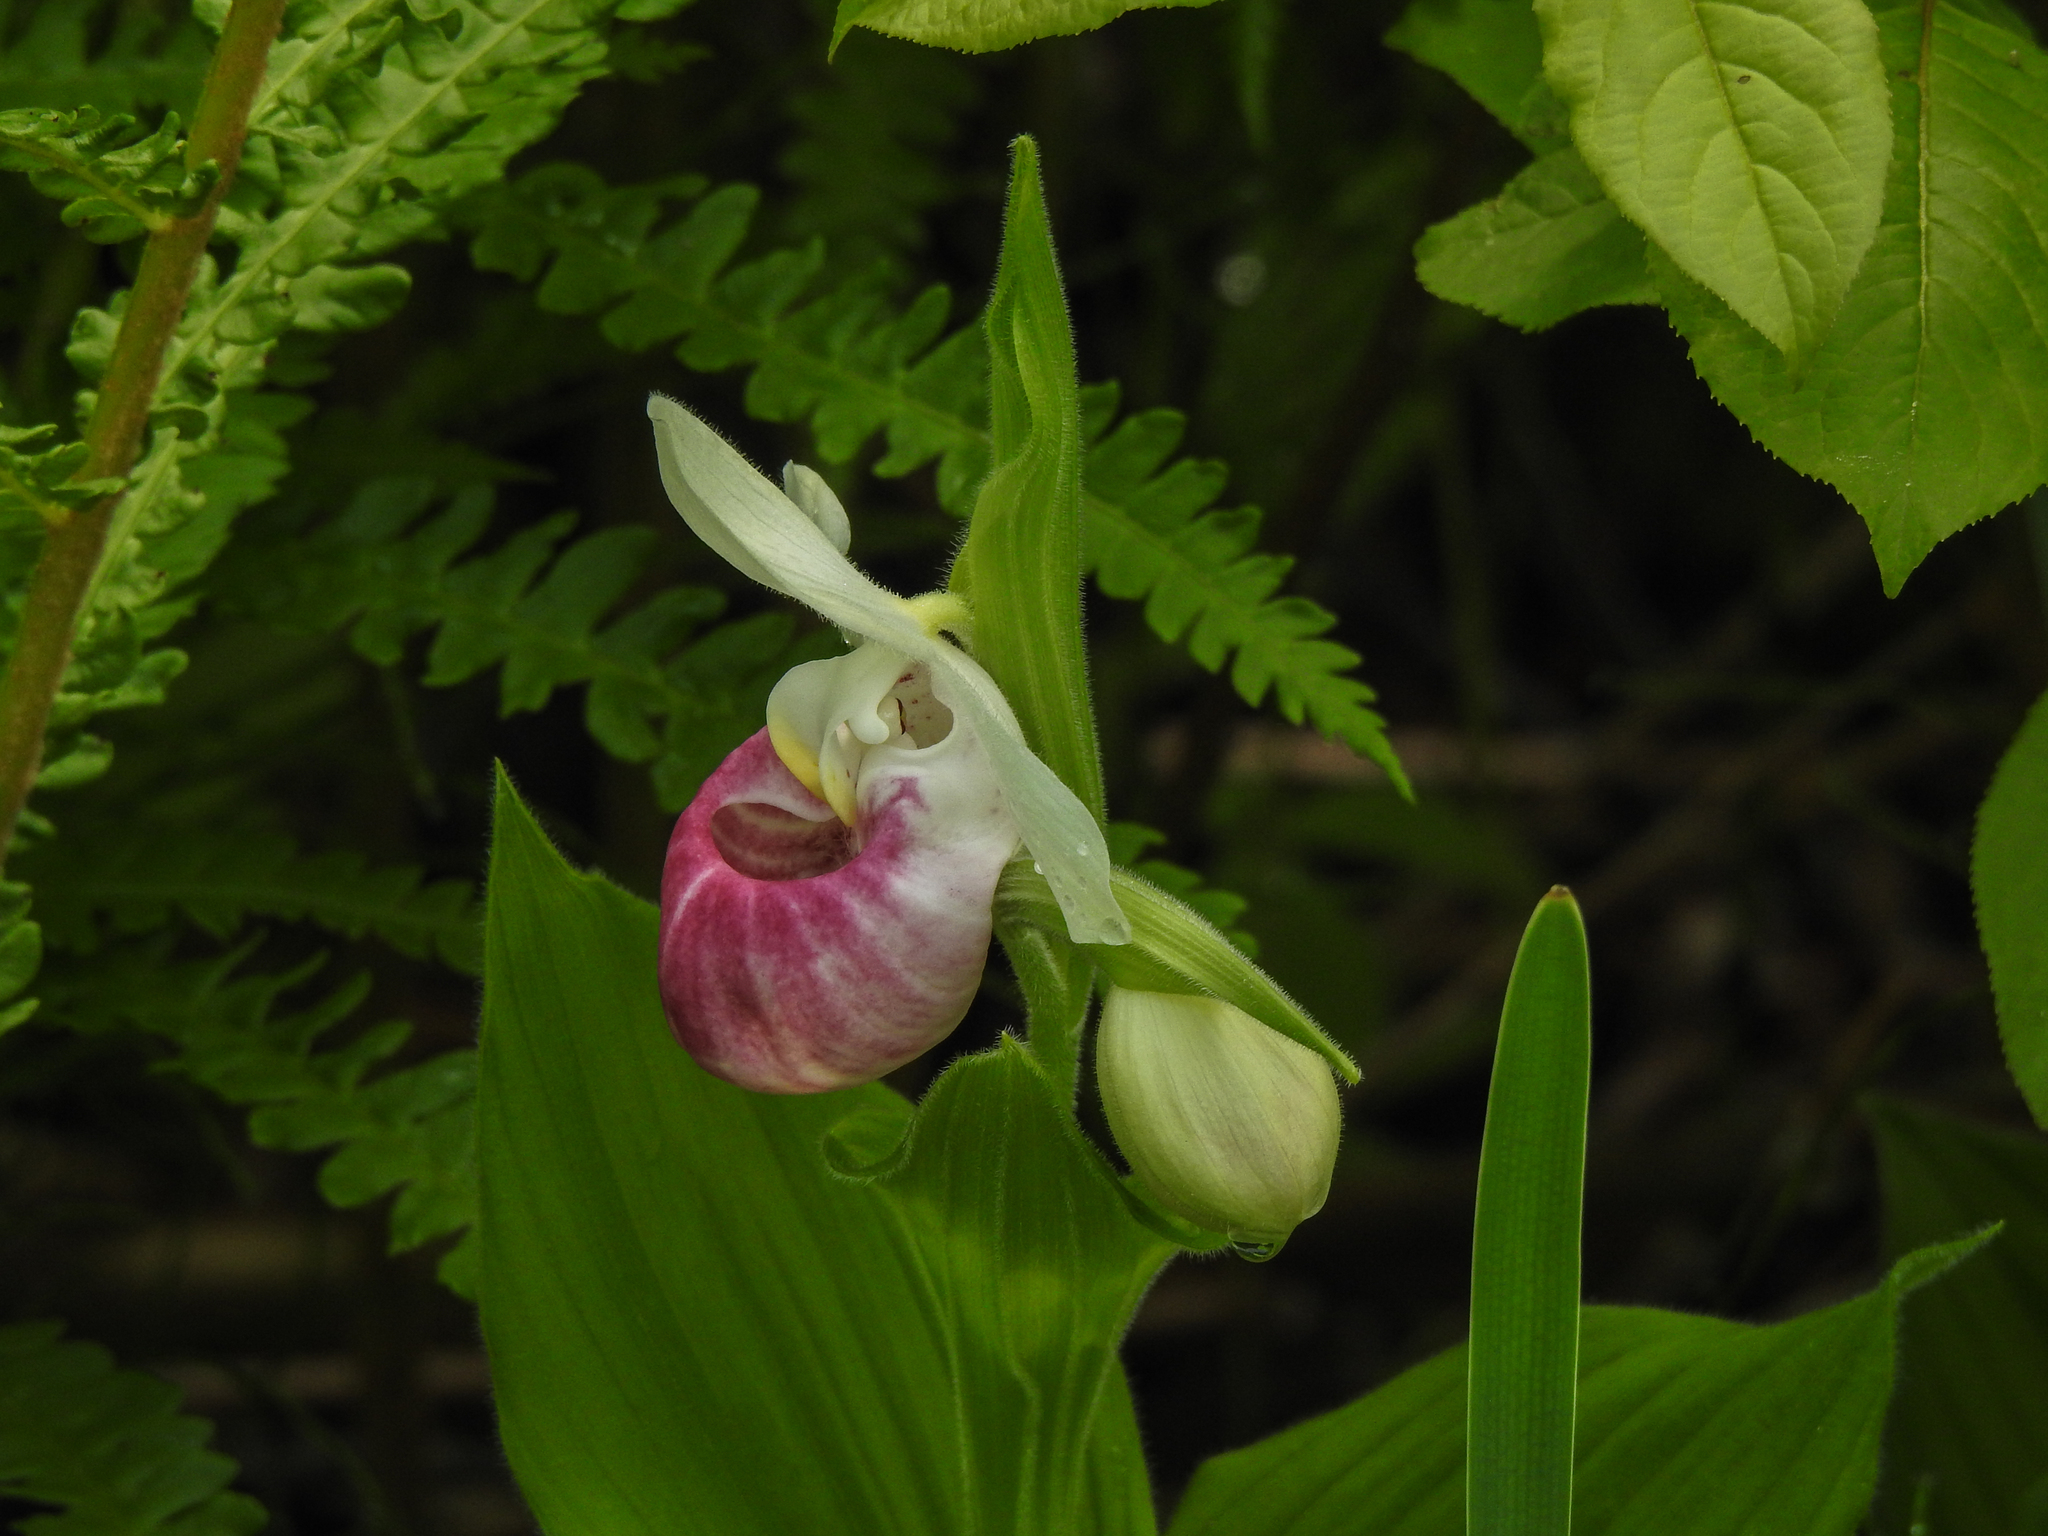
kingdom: Plantae
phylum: Tracheophyta
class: Liliopsida
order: Asparagales
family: Orchidaceae
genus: Cypripedium
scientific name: Cypripedium reginae
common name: Queen lady's-slipper
